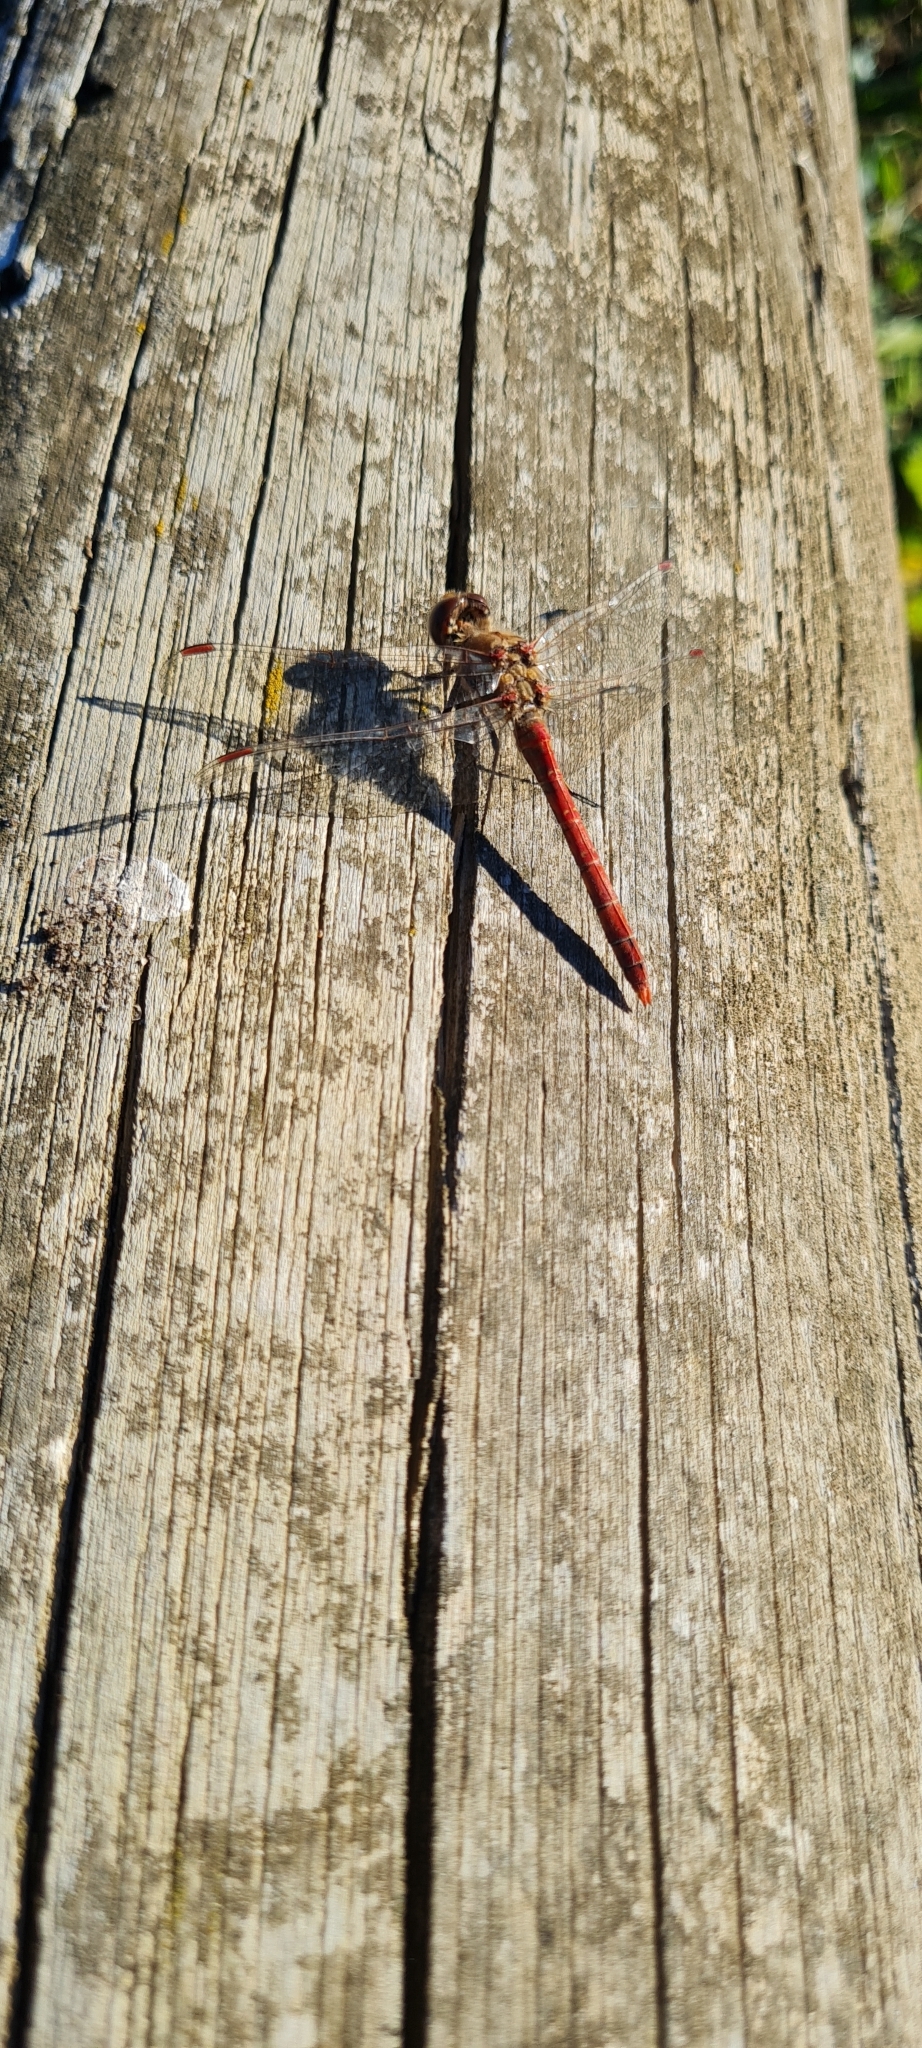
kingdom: Animalia
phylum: Arthropoda
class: Insecta
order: Odonata
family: Libellulidae
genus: Sympetrum
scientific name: Sympetrum striolatum
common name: Common darter
